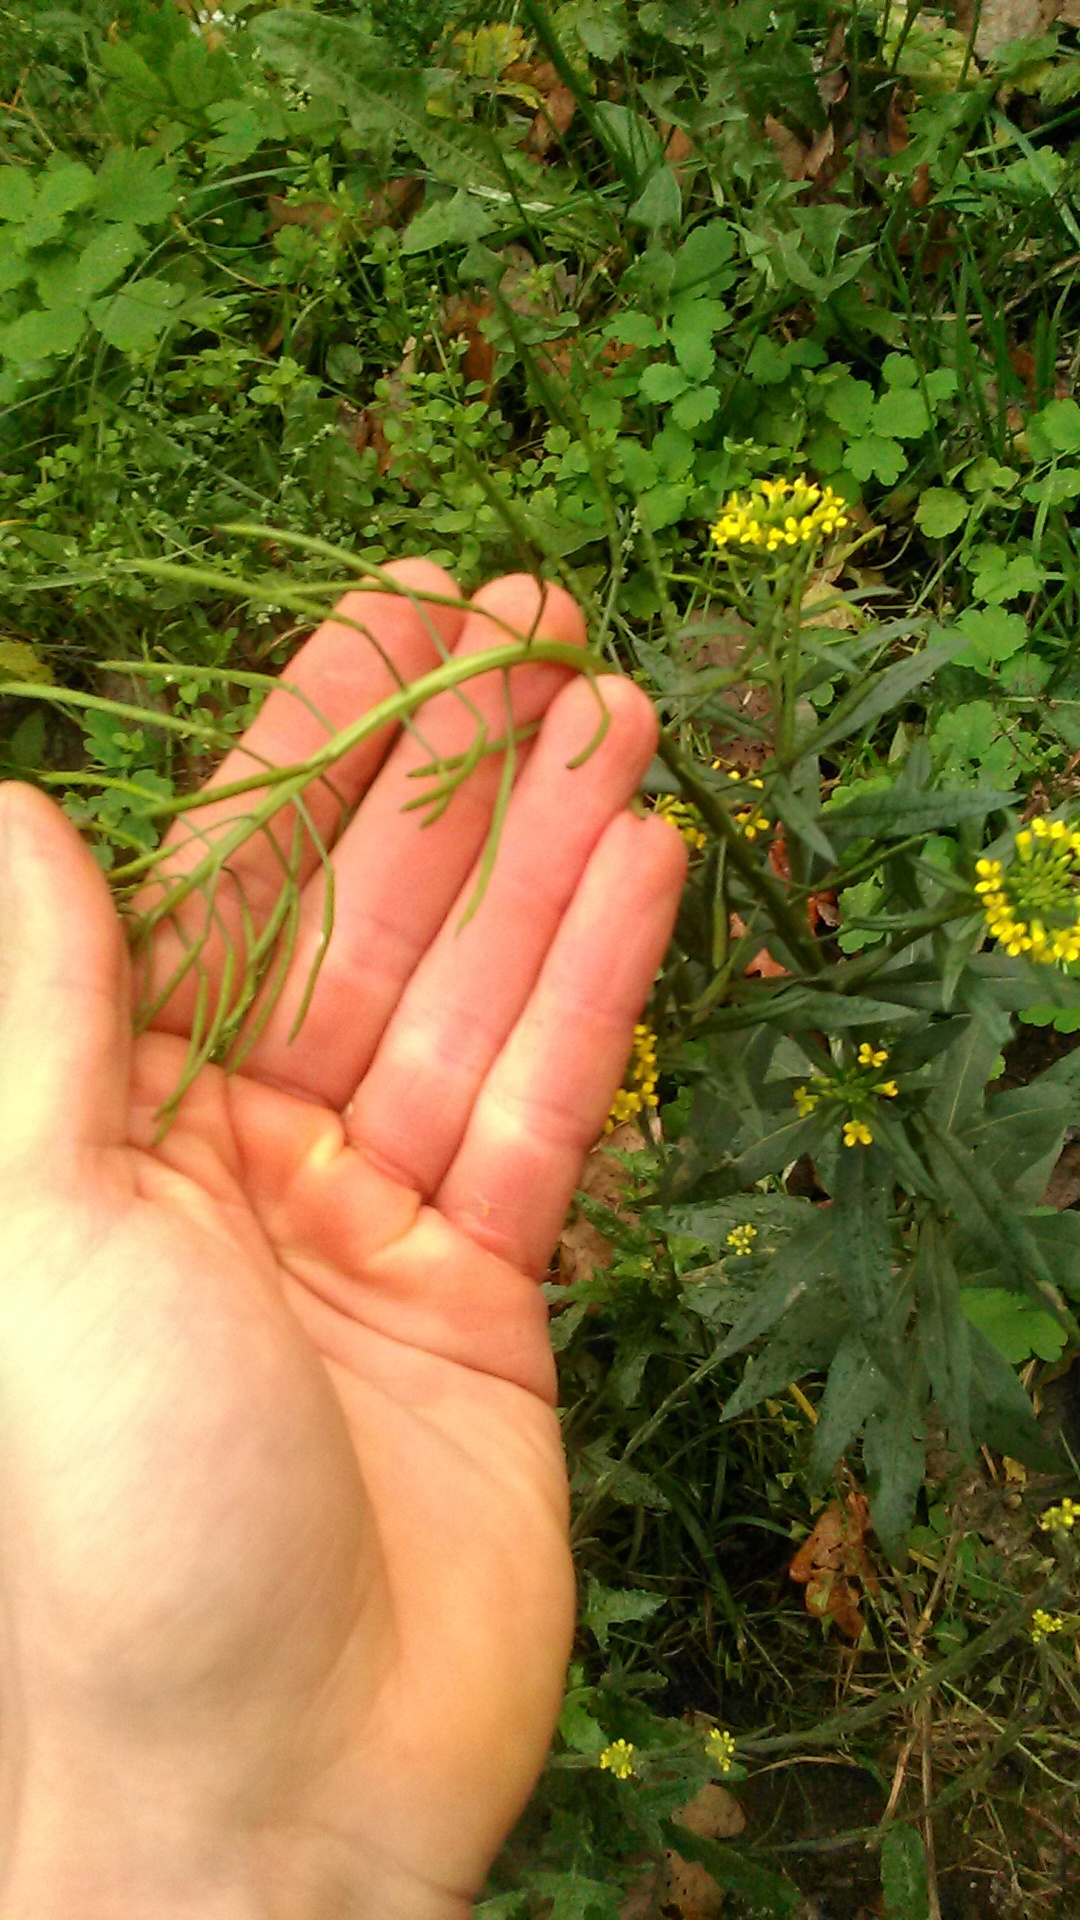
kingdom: Plantae
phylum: Tracheophyta
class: Magnoliopsida
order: Brassicales
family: Brassicaceae
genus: Erysimum
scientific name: Erysimum cheiranthoides
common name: Treacle mustard
